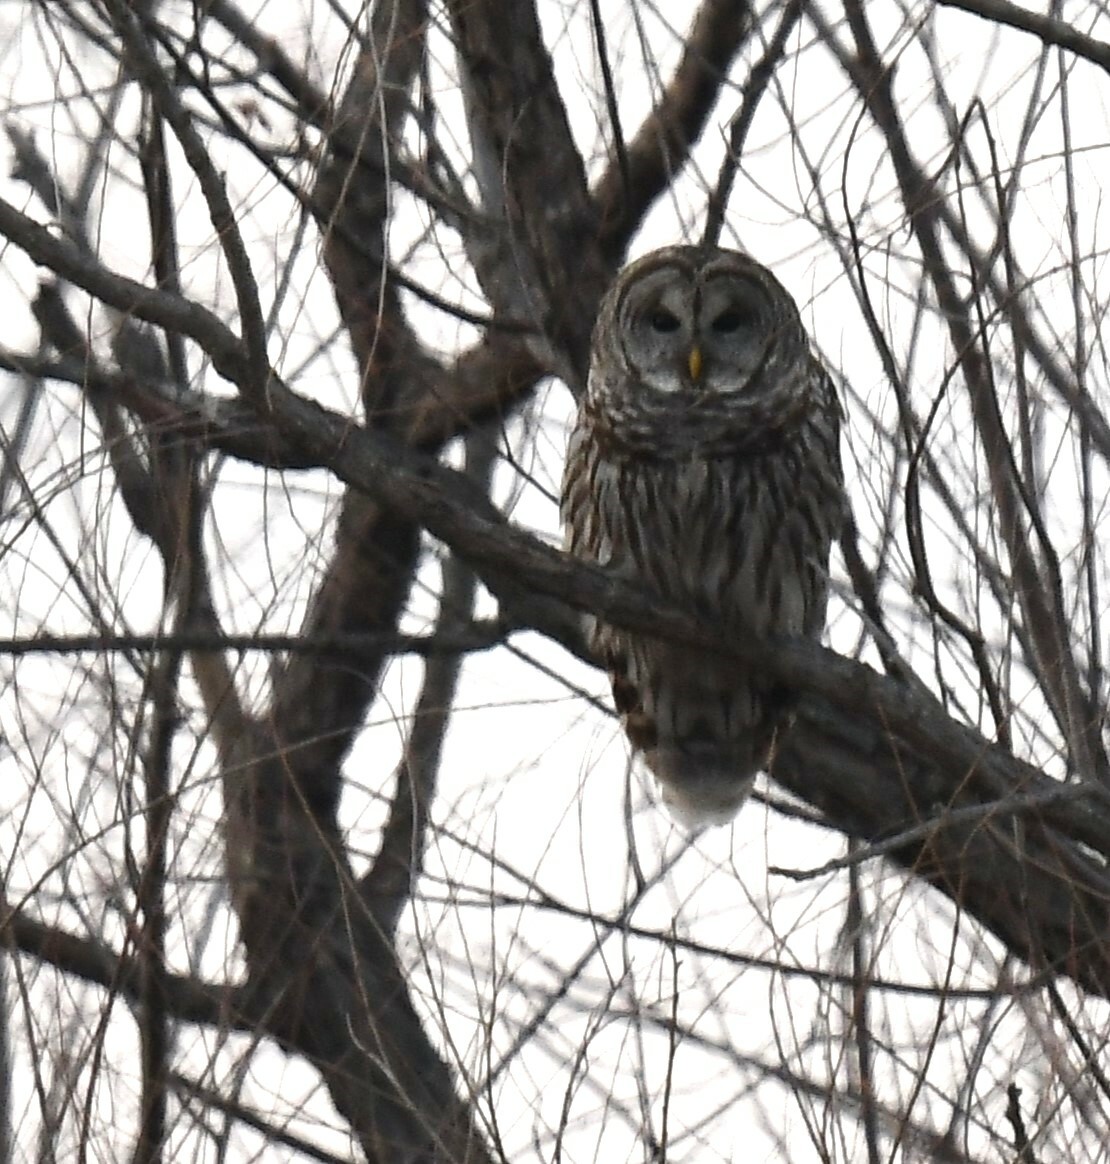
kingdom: Animalia
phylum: Chordata
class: Aves
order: Strigiformes
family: Strigidae
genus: Strix
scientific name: Strix varia
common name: Barred owl
